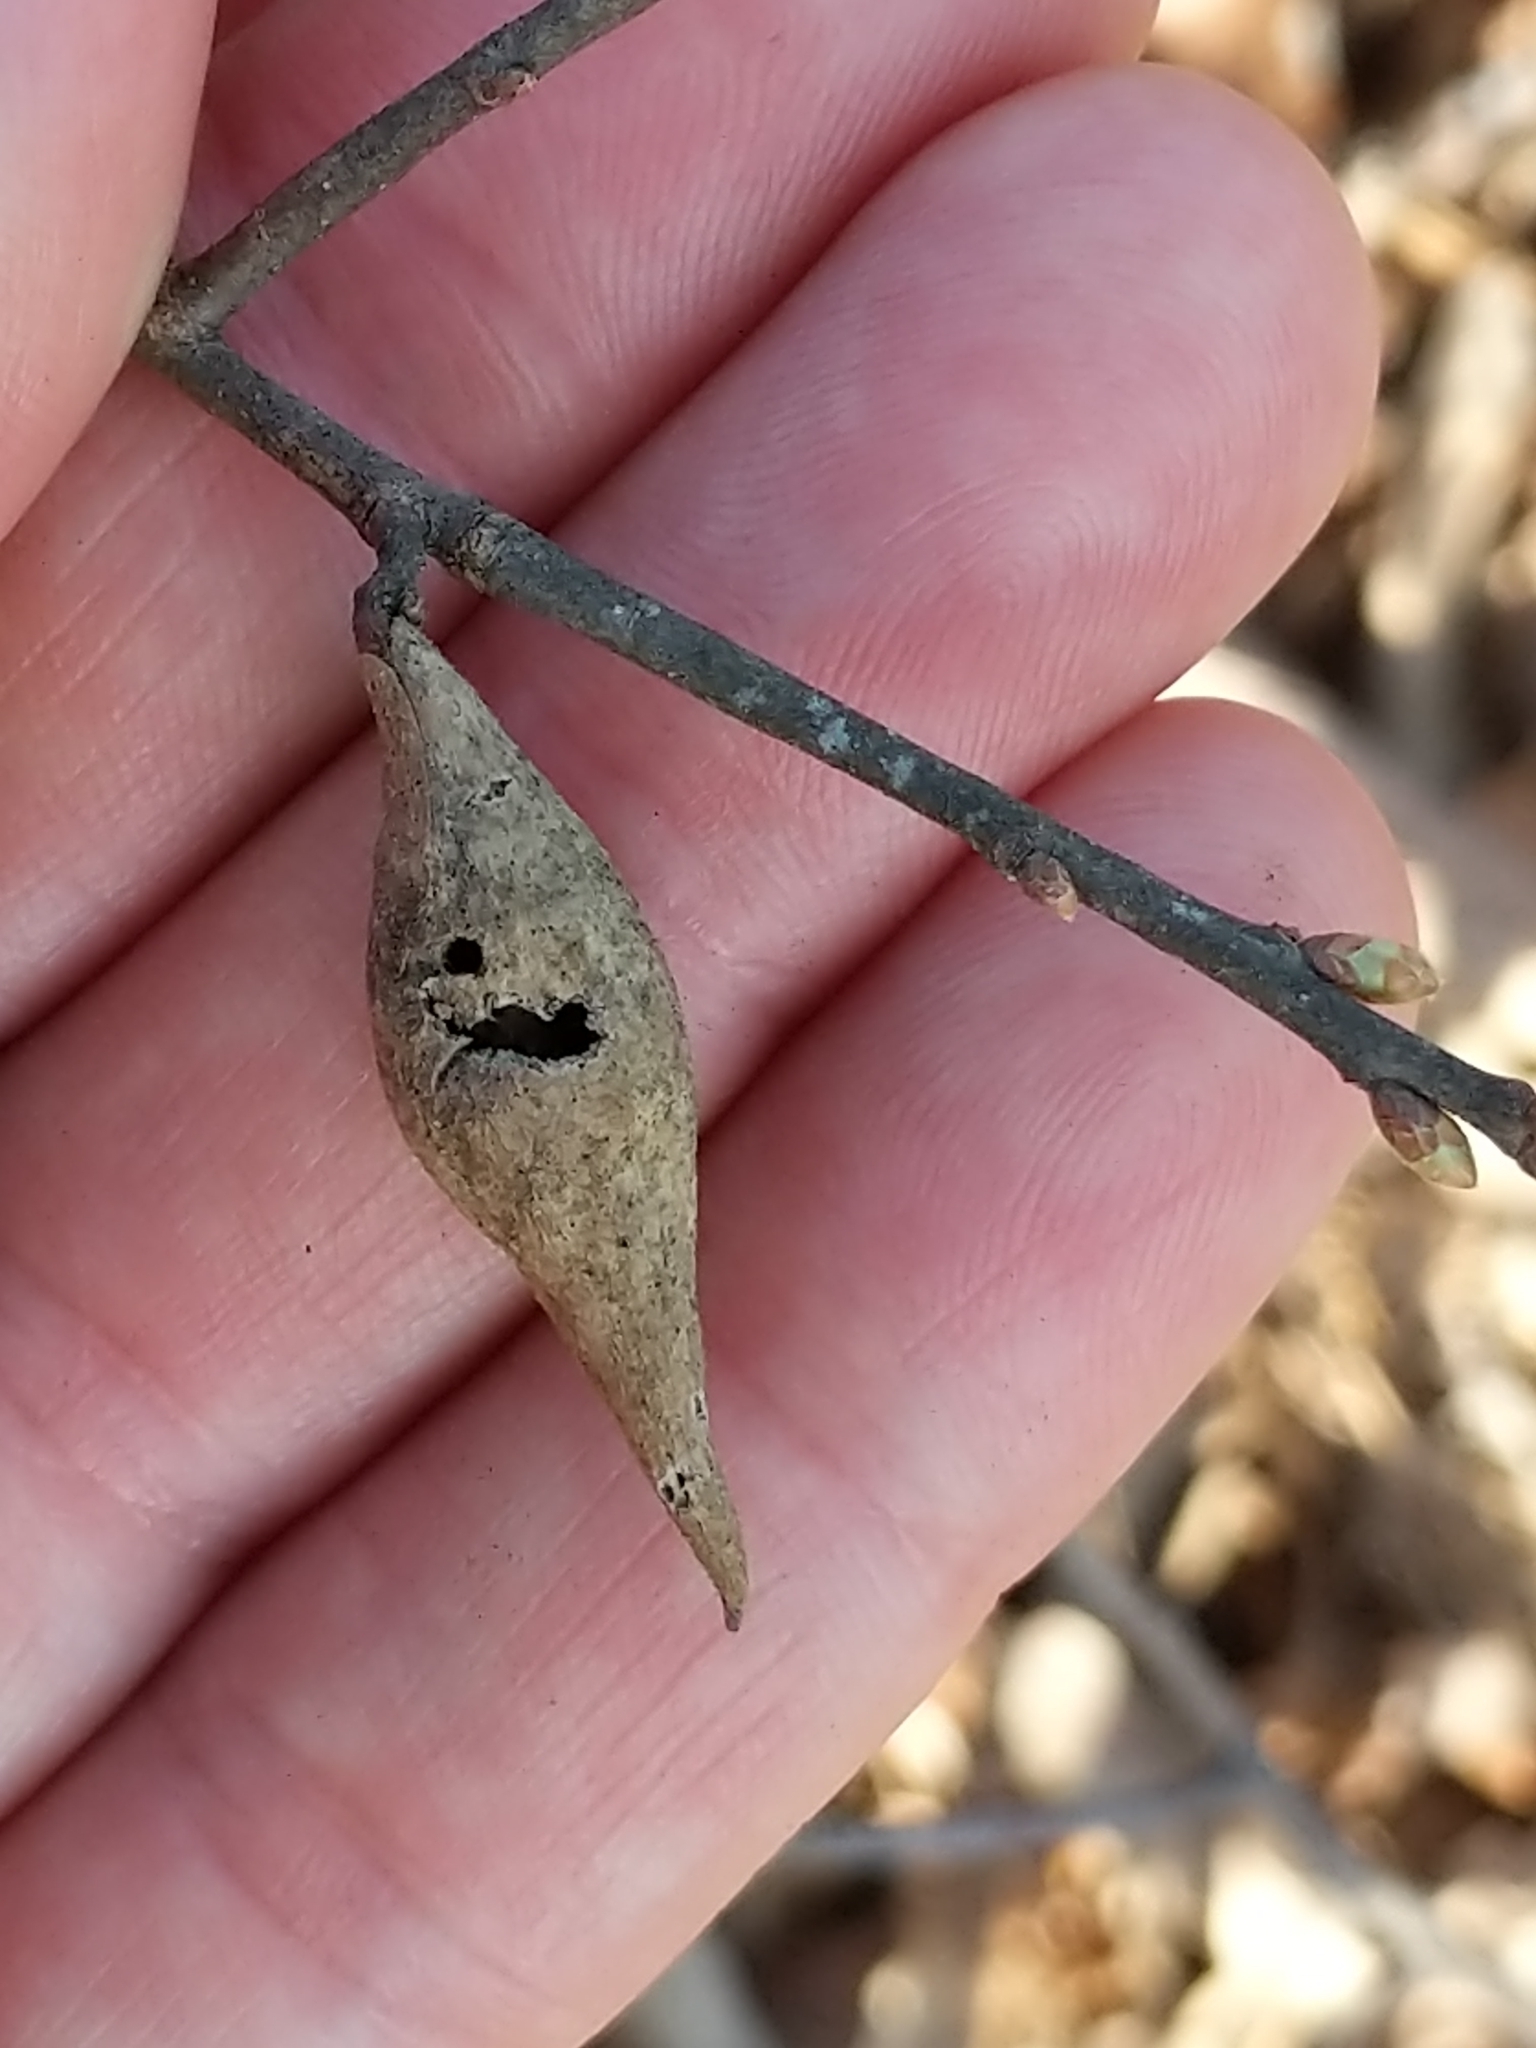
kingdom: Animalia
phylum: Arthropoda
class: Insecta
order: Hymenoptera
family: Cynipidae
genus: Amphibolips
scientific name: Amphibolips
